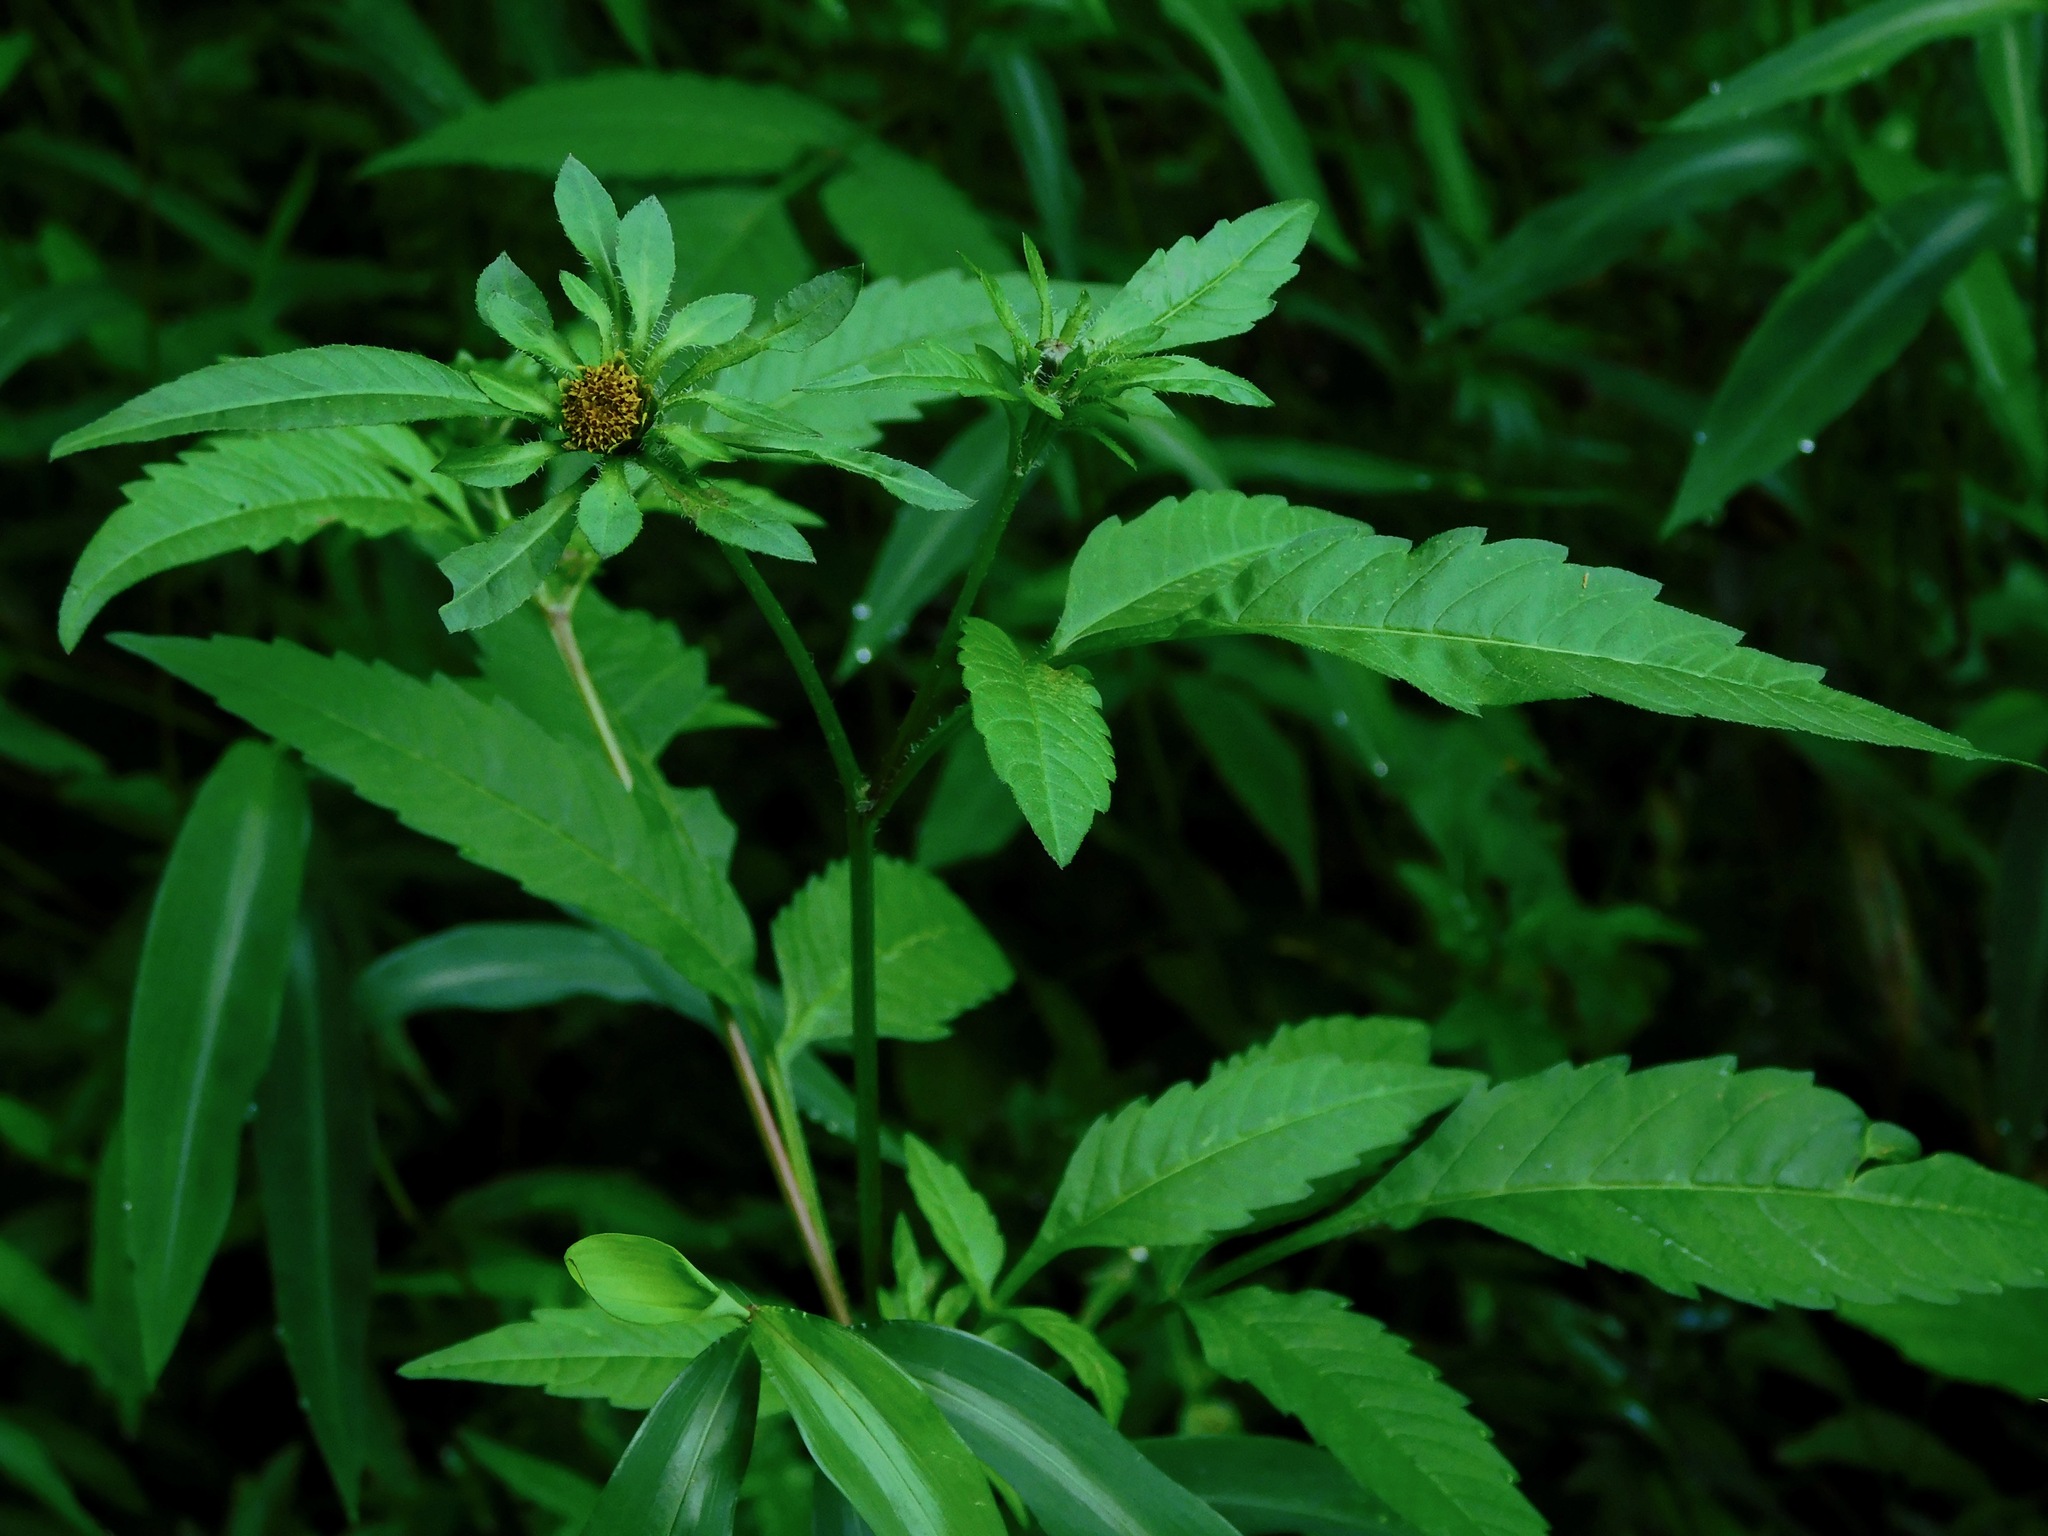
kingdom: Plantae
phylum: Tracheophyta
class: Magnoliopsida
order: Asterales
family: Asteraceae
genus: Bidens
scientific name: Bidens vulgata
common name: Tall beggarticks
